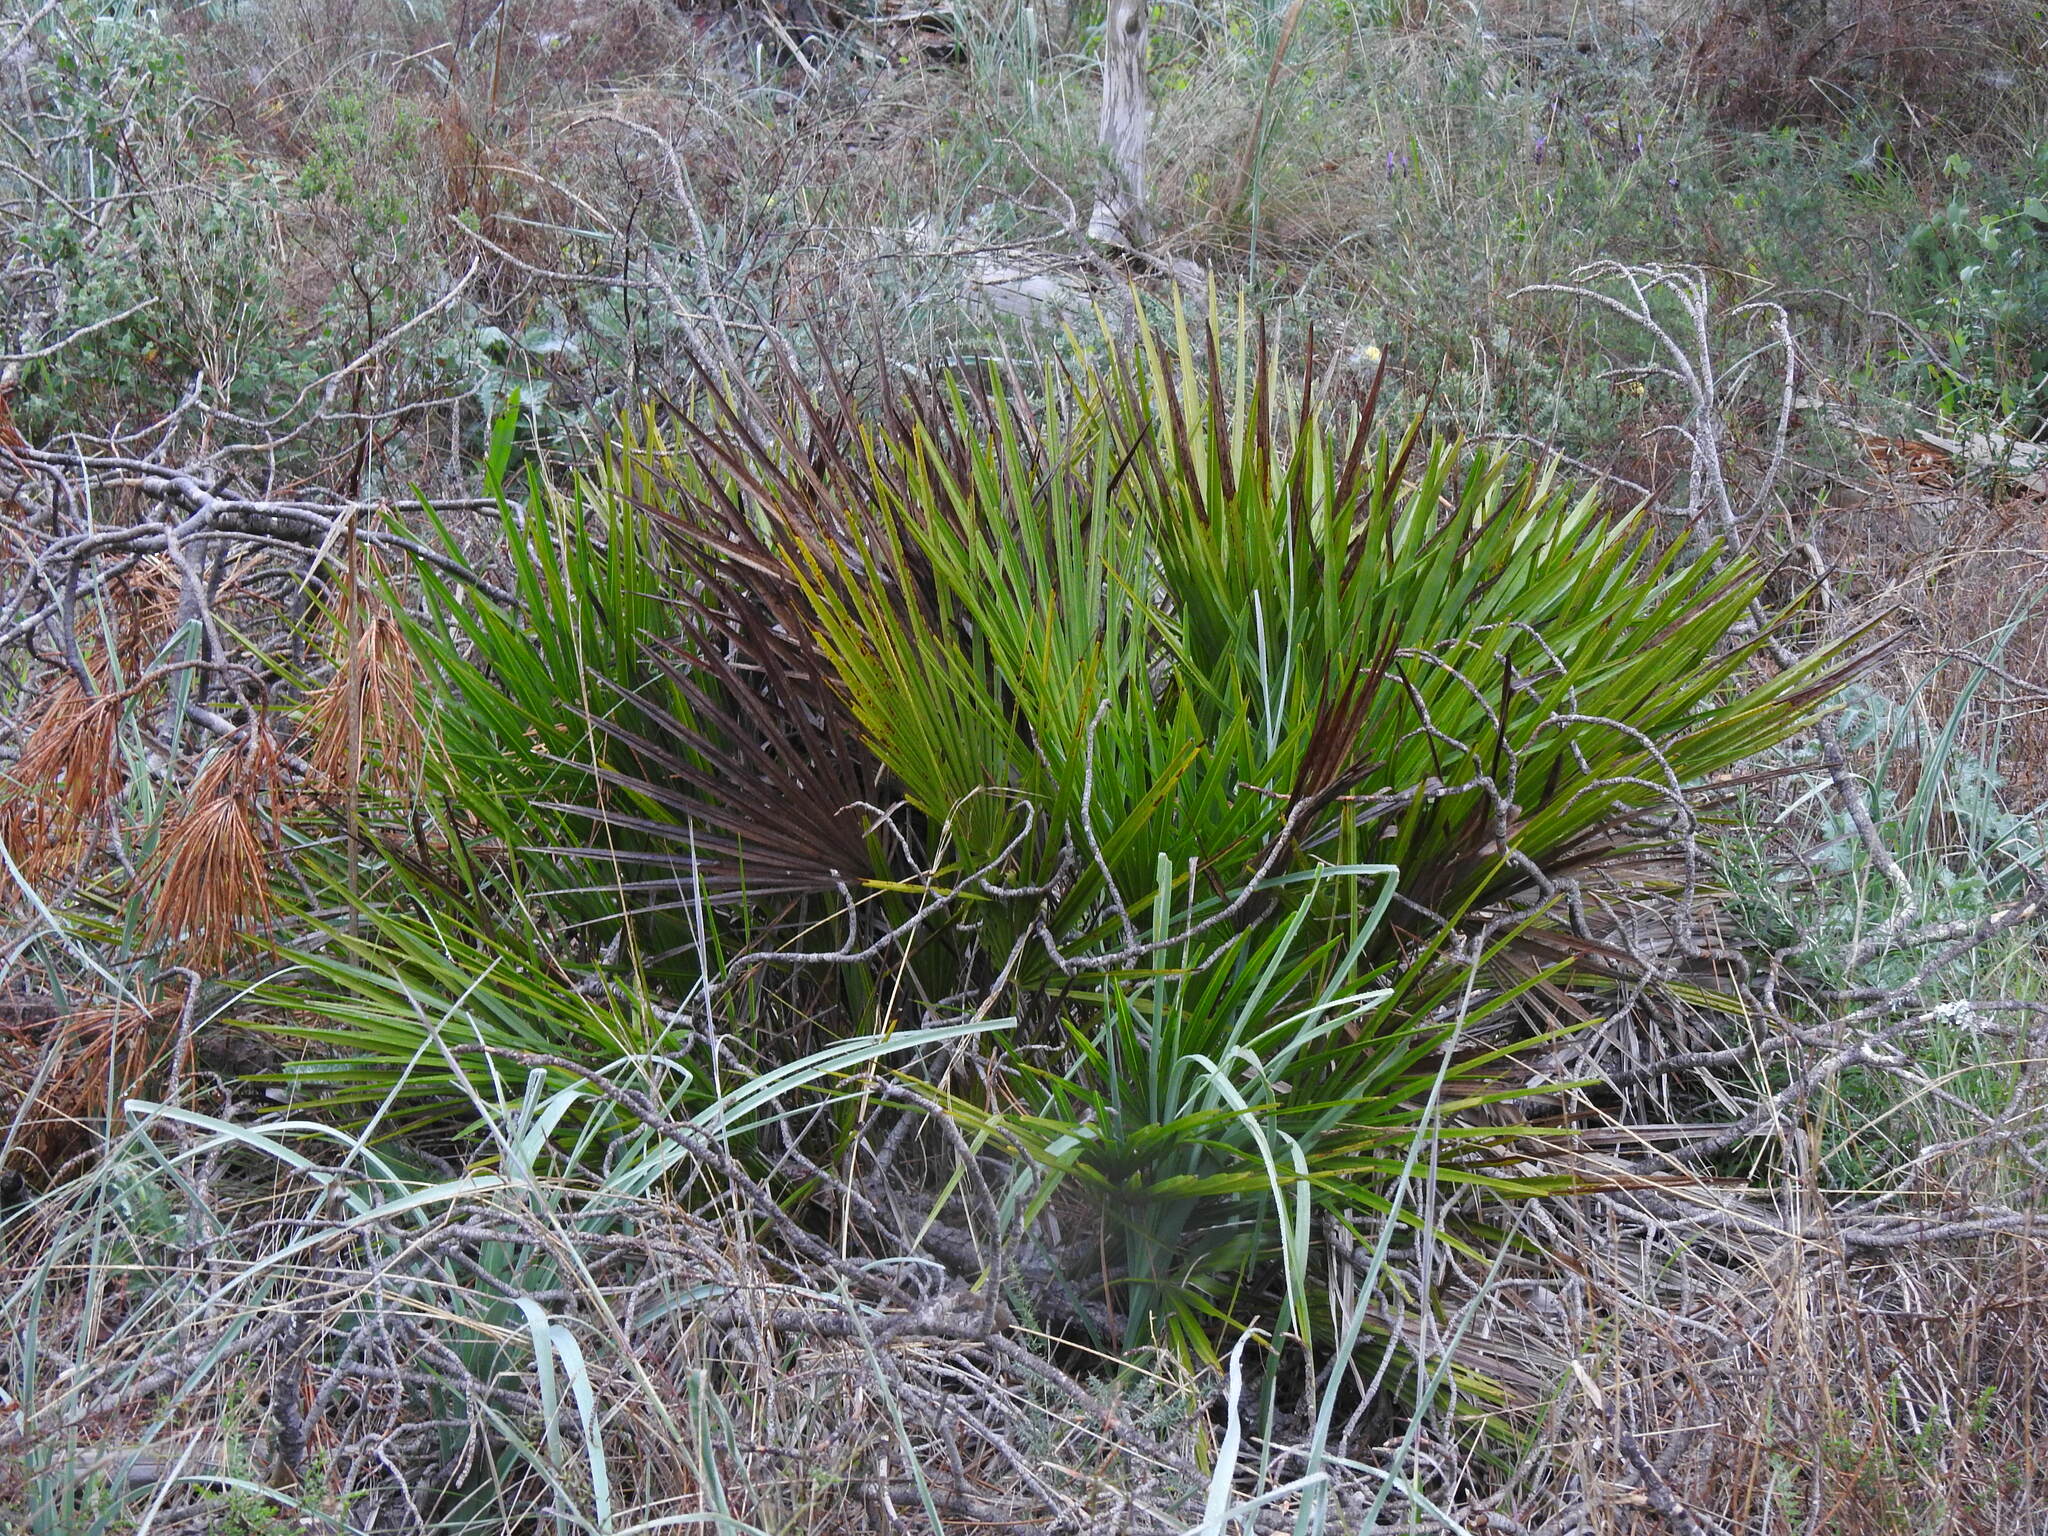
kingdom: Plantae
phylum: Tracheophyta
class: Liliopsida
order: Arecales
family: Arecaceae
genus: Chamaerops
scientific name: Chamaerops humilis
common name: Dwarf fan palm
